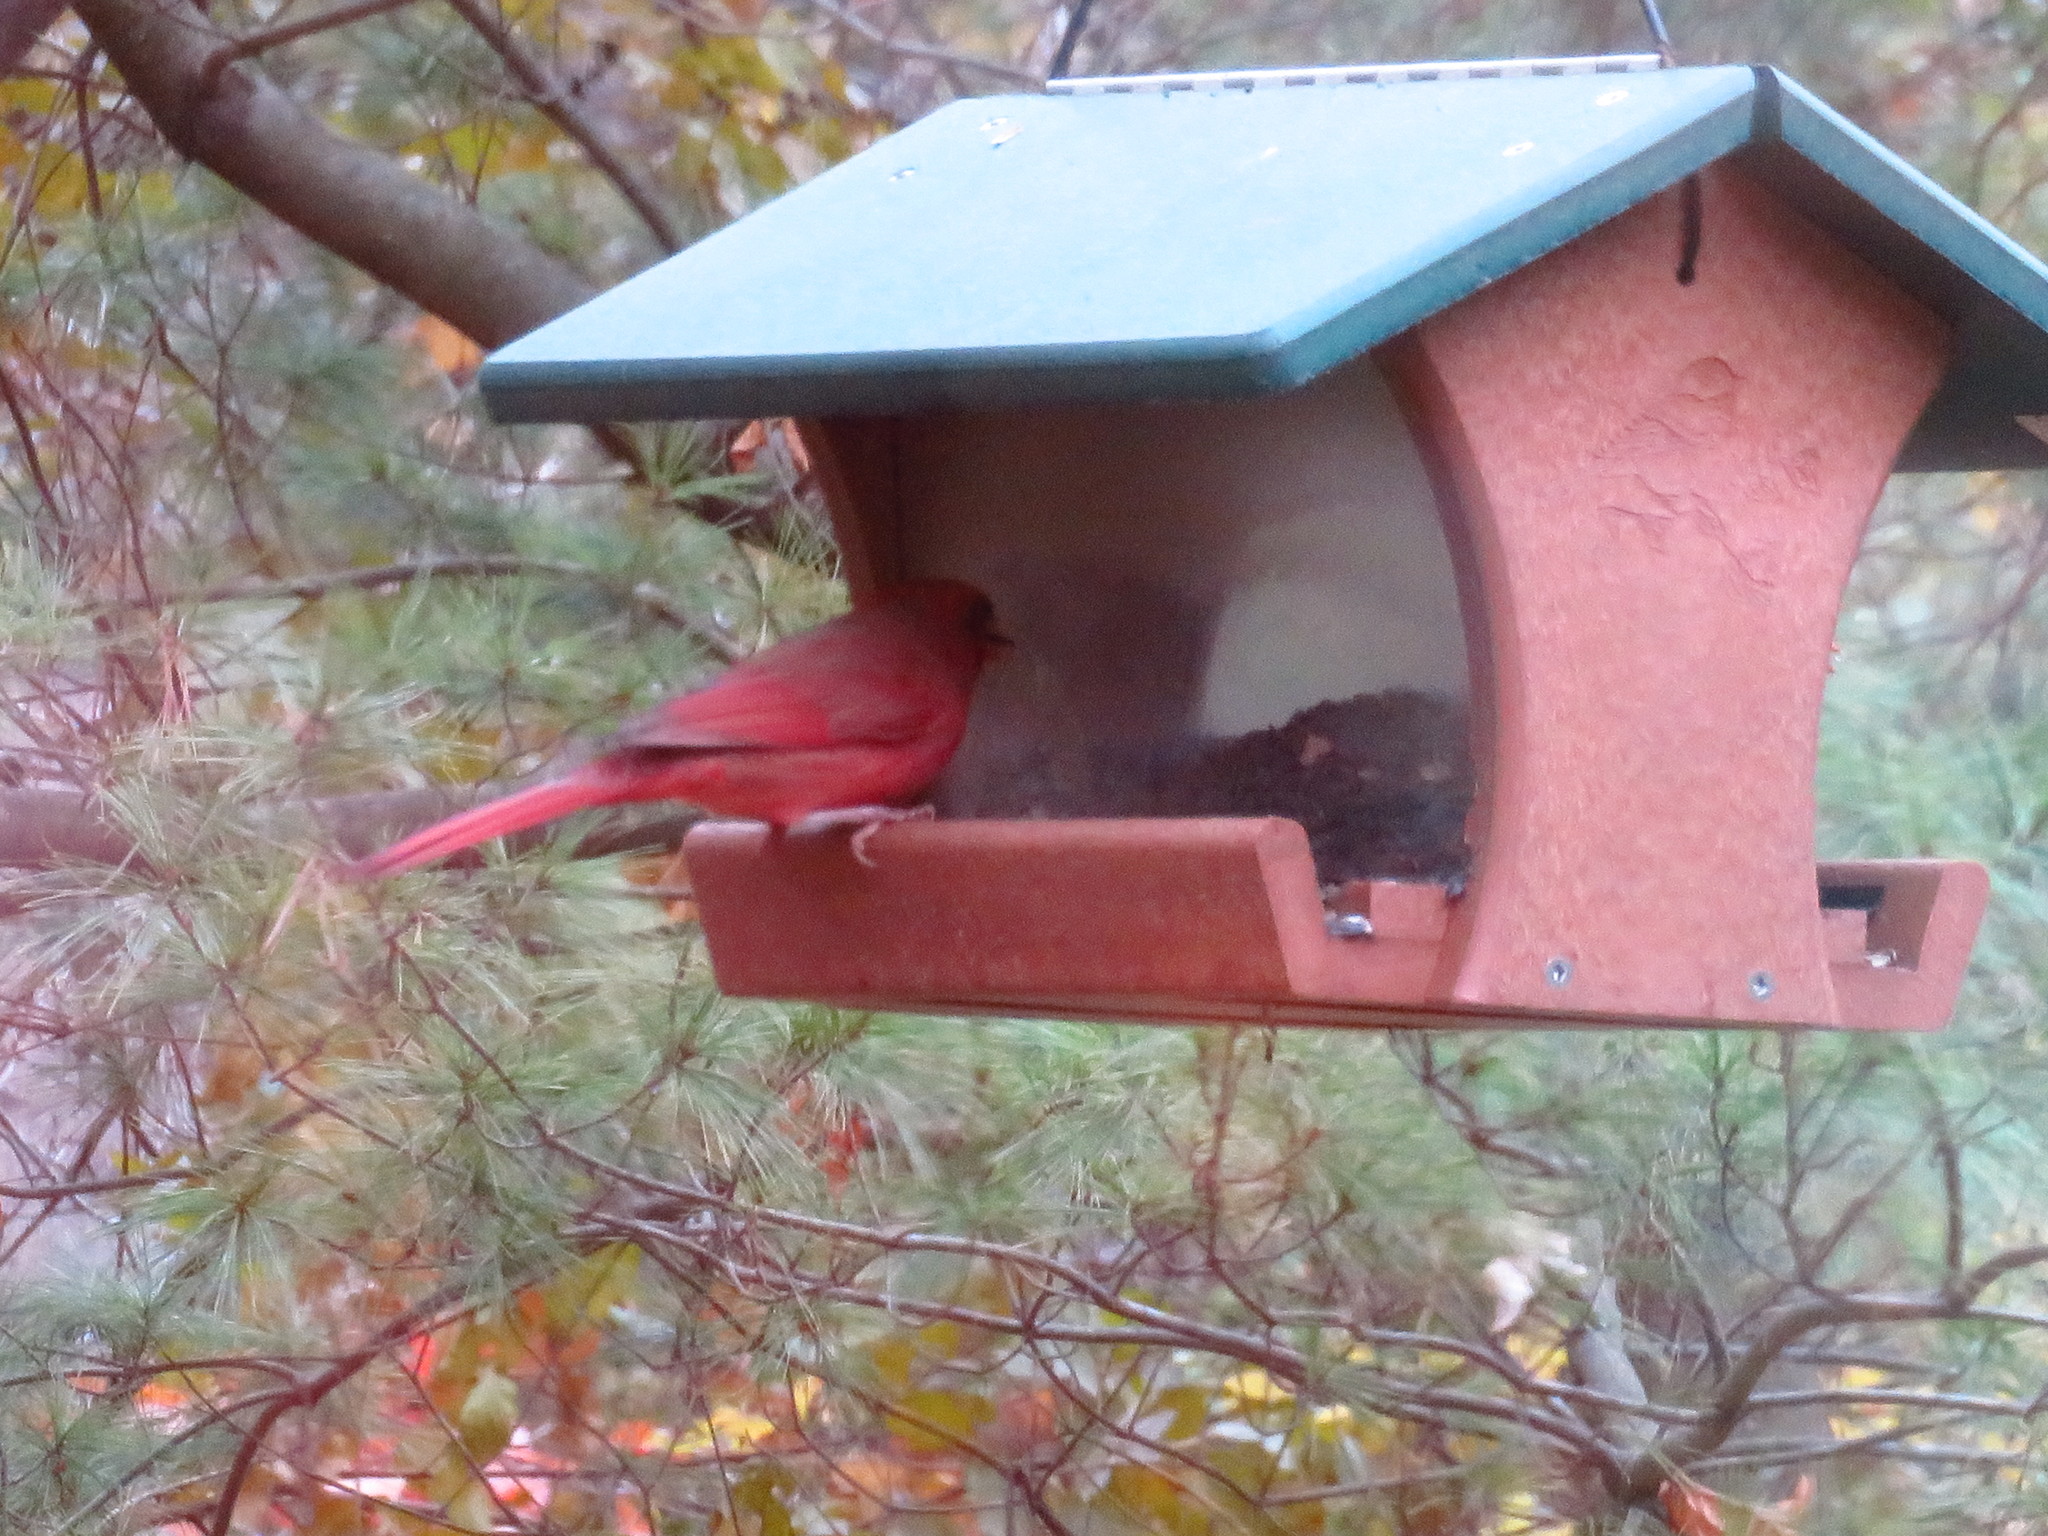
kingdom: Animalia
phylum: Chordata
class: Aves
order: Passeriformes
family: Cardinalidae
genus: Cardinalis
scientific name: Cardinalis cardinalis
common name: Northern cardinal
